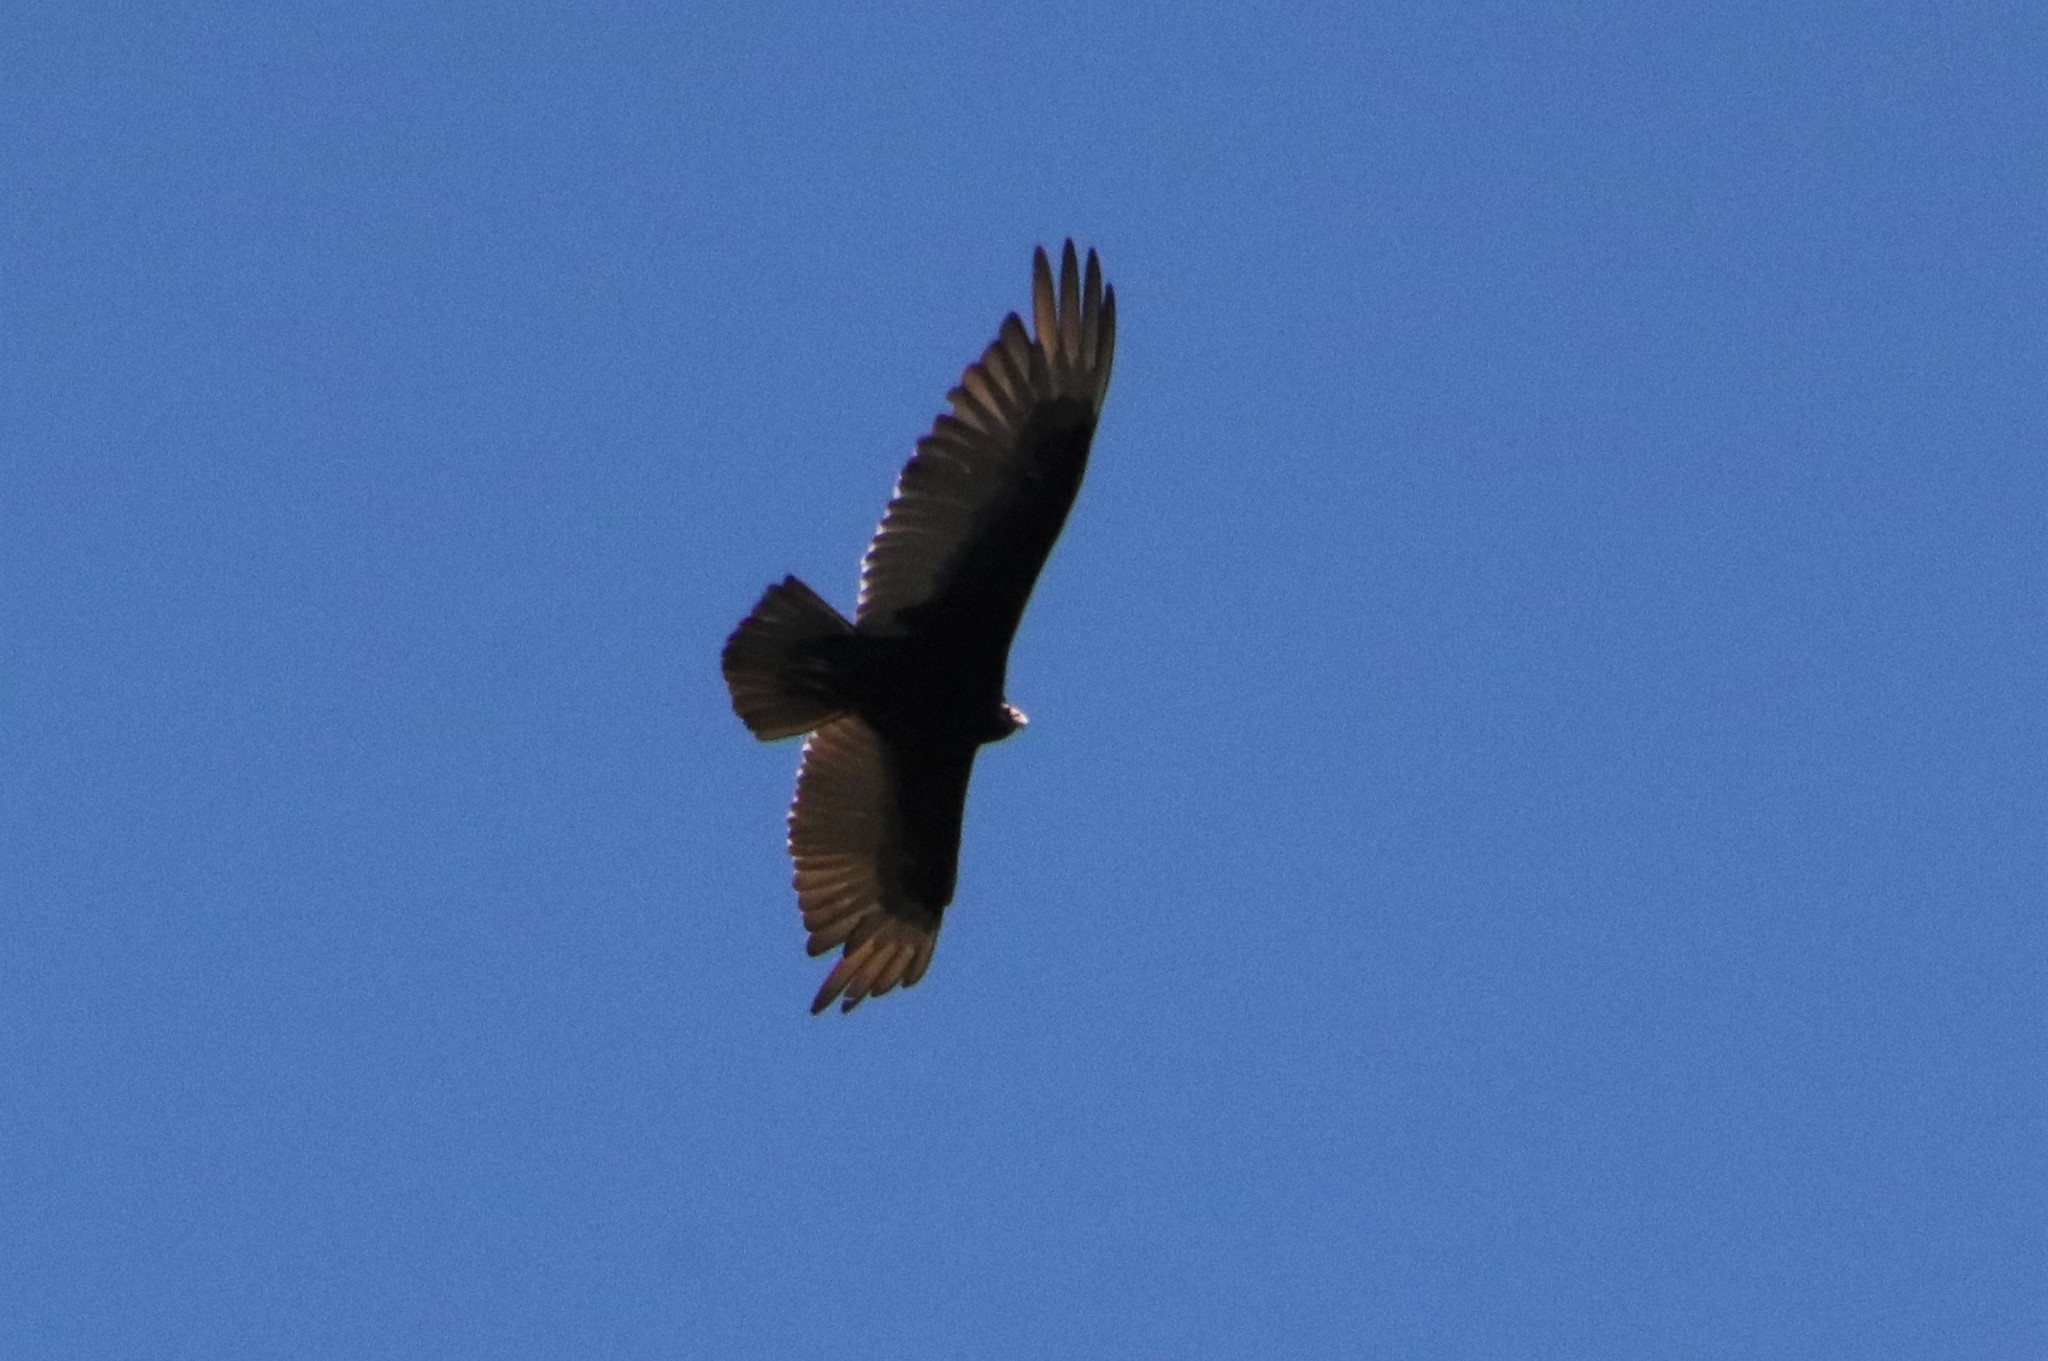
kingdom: Animalia
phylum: Chordata
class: Aves
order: Accipitriformes
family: Cathartidae
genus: Cathartes
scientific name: Cathartes aura
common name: Turkey vulture
